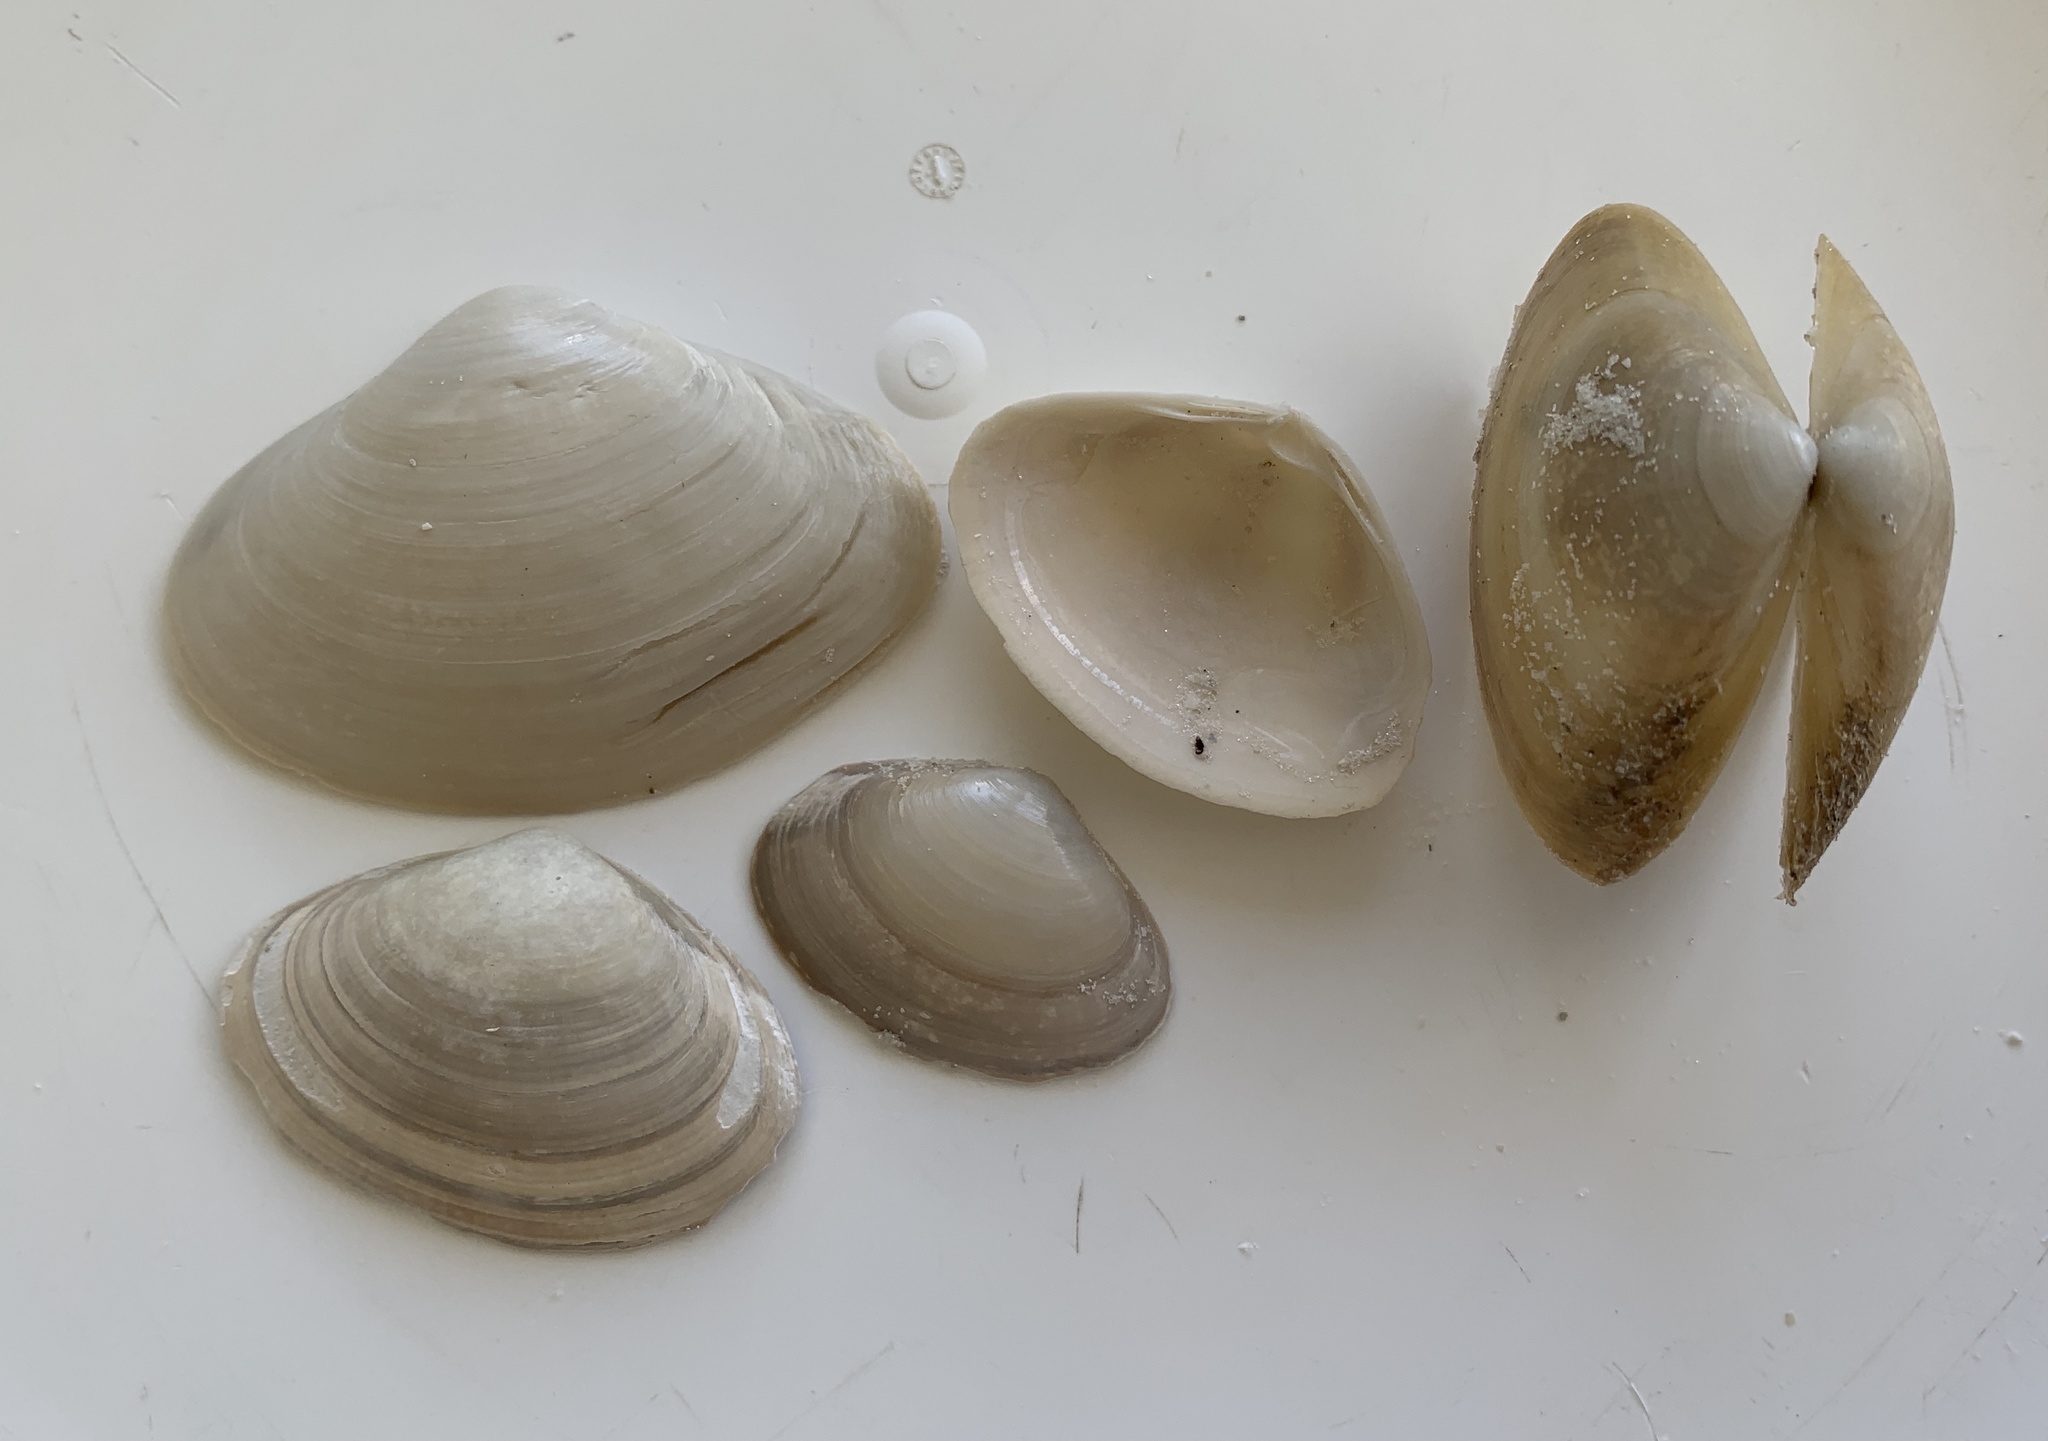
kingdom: Animalia
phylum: Mollusca
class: Bivalvia
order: Venerida
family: Mactridae
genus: Spisula
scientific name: Spisula raveneli
